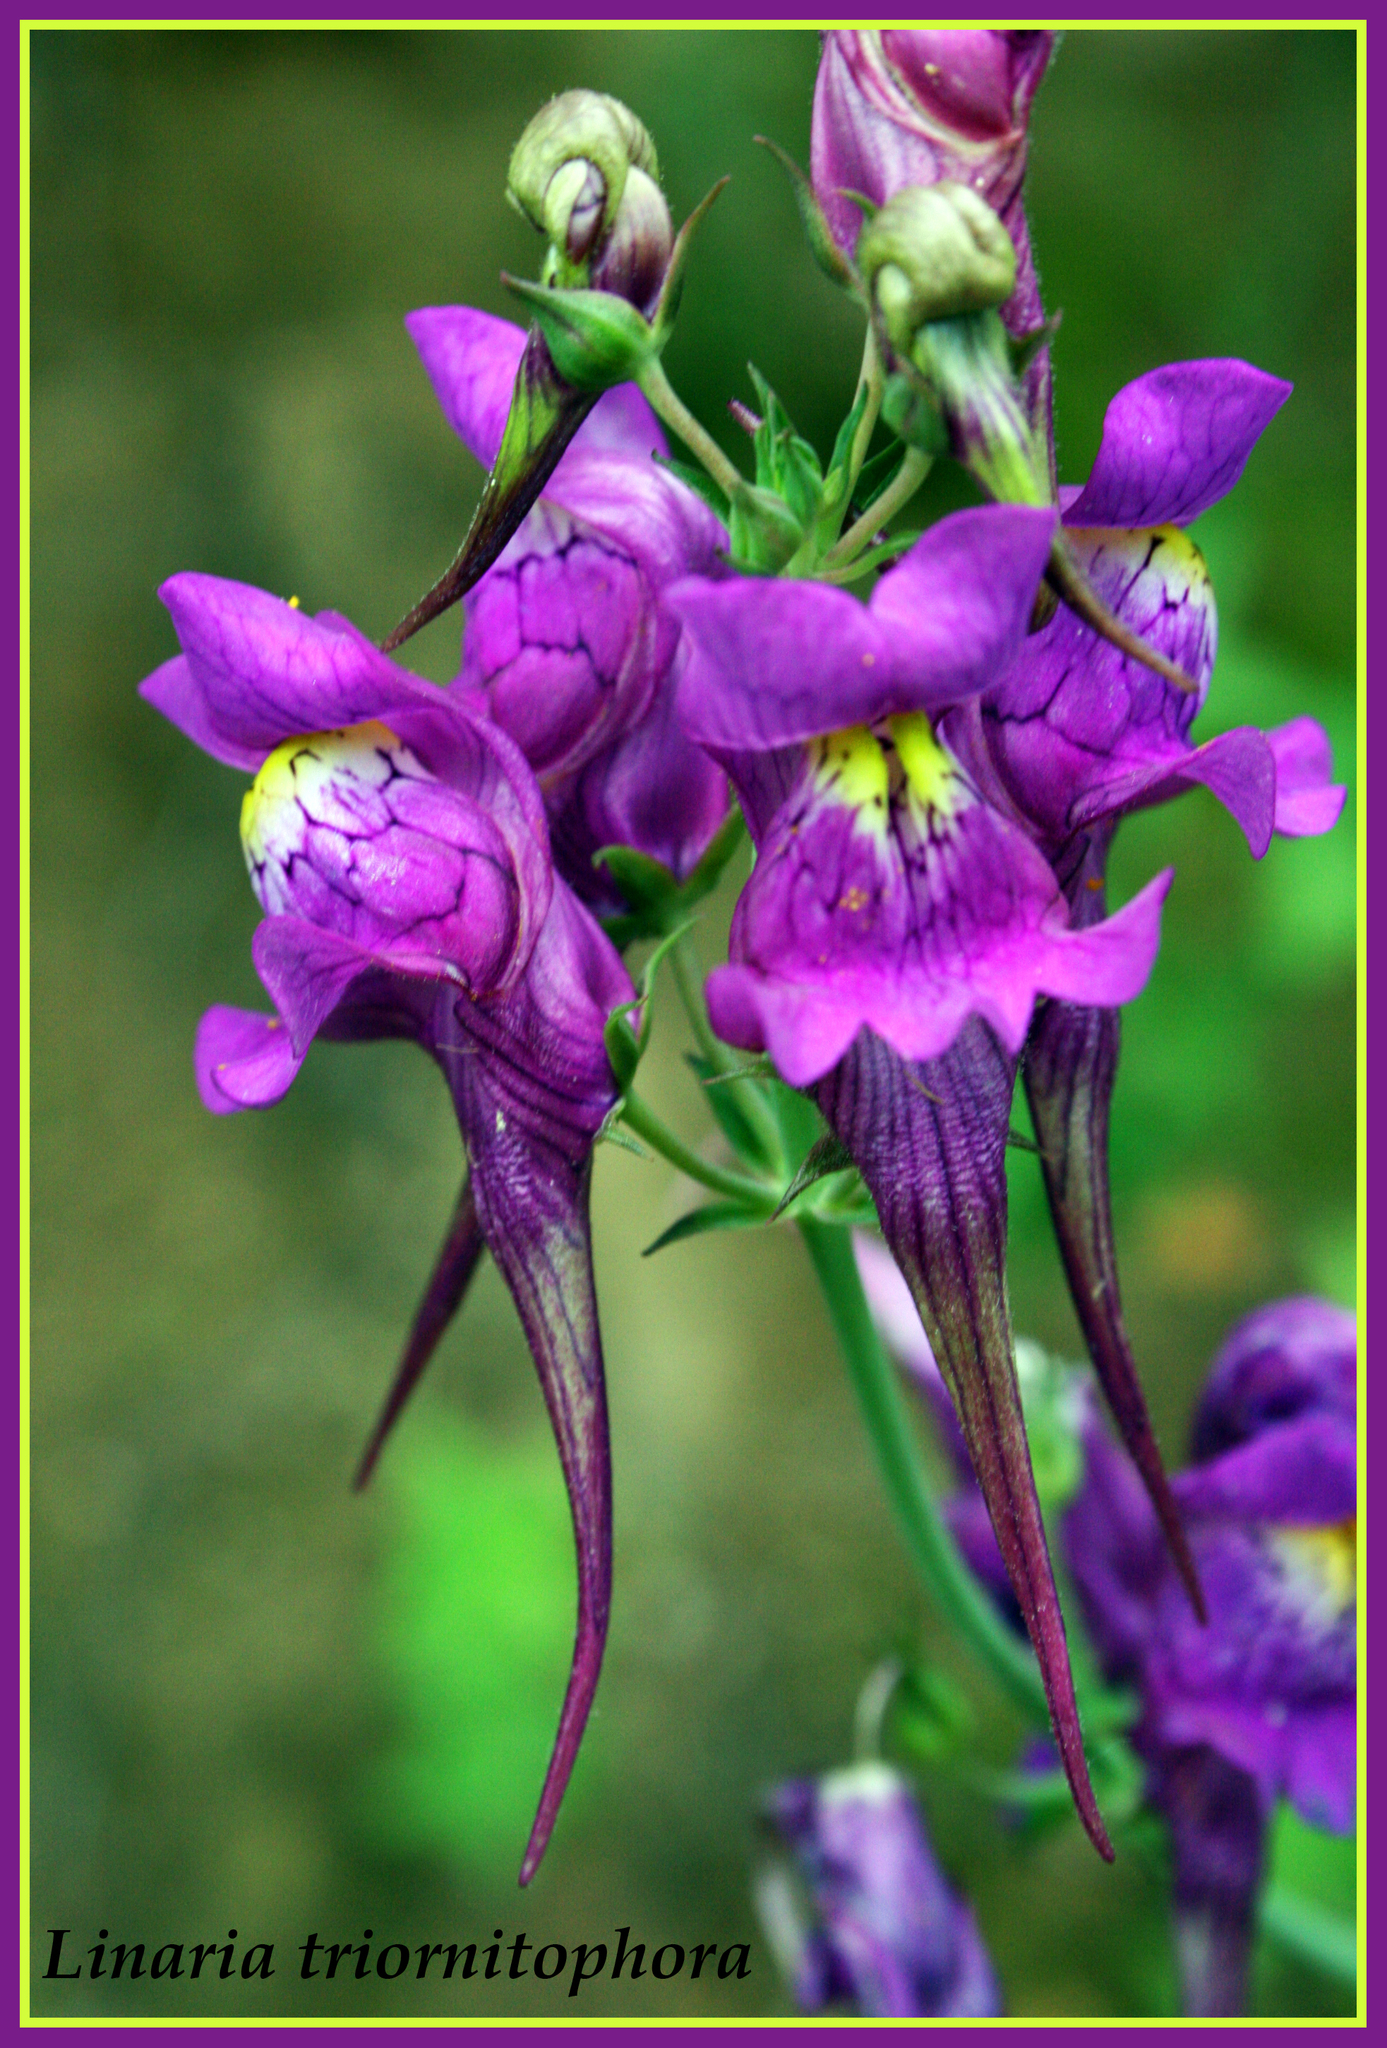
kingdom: Plantae
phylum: Tracheophyta
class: Magnoliopsida
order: Lamiales
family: Plantaginaceae
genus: Linaria
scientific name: Linaria triornithophora
